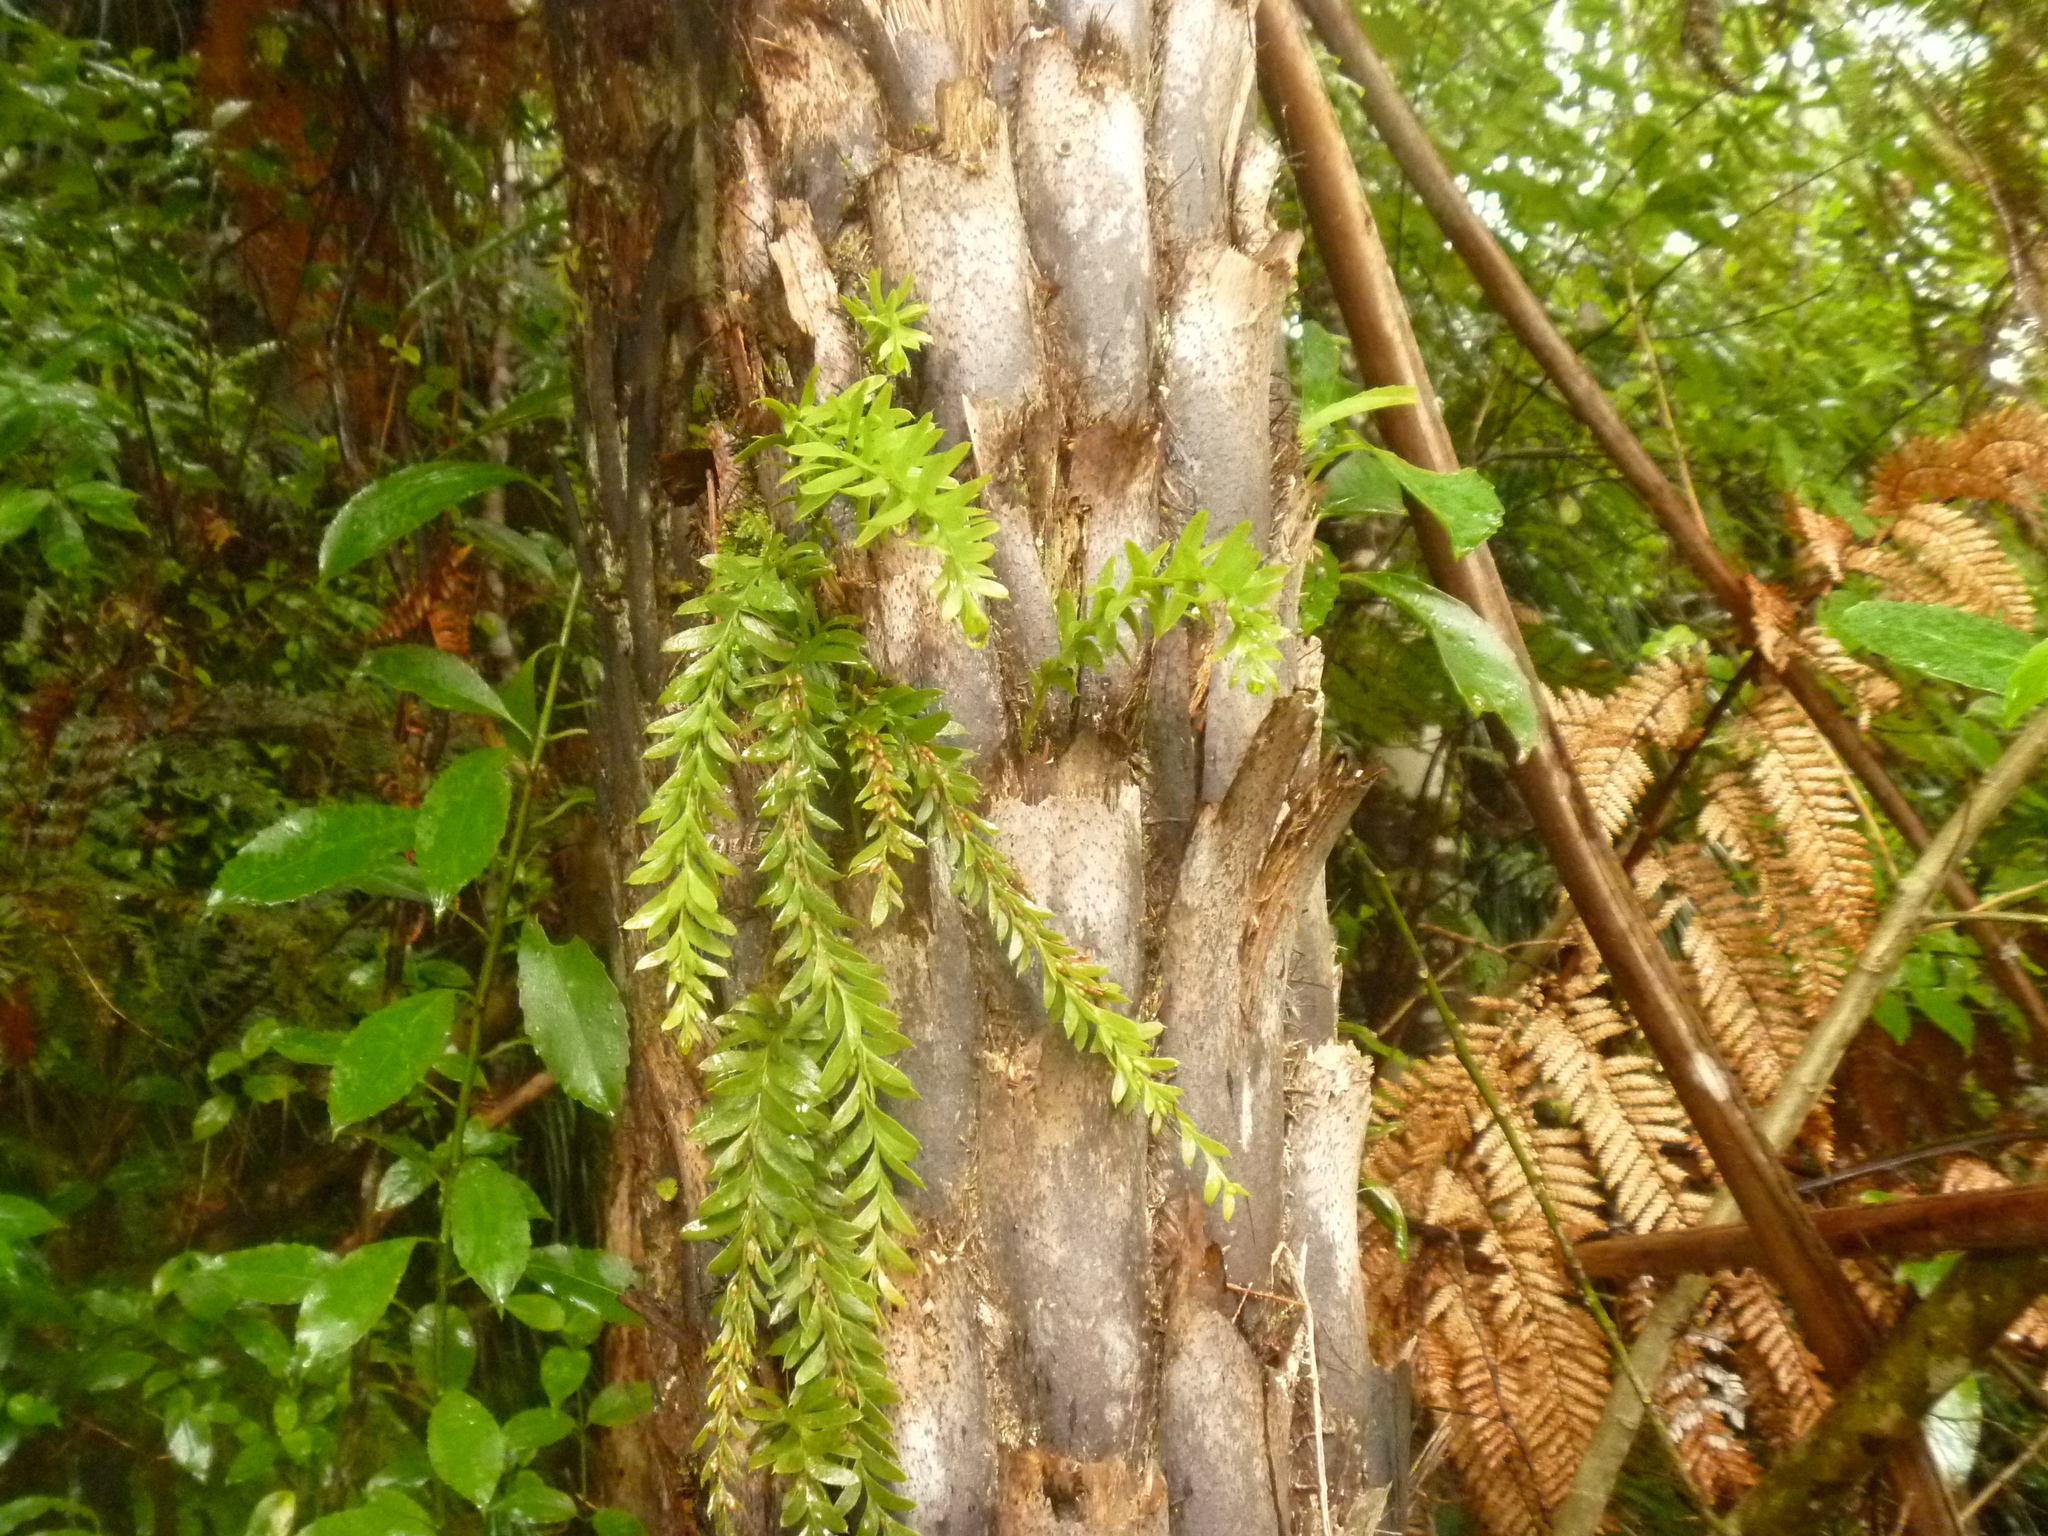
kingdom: Plantae
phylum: Tracheophyta
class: Polypodiopsida
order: Psilotales
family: Psilotaceae
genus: Tmesipteris
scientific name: Tmesipteris tannensis
